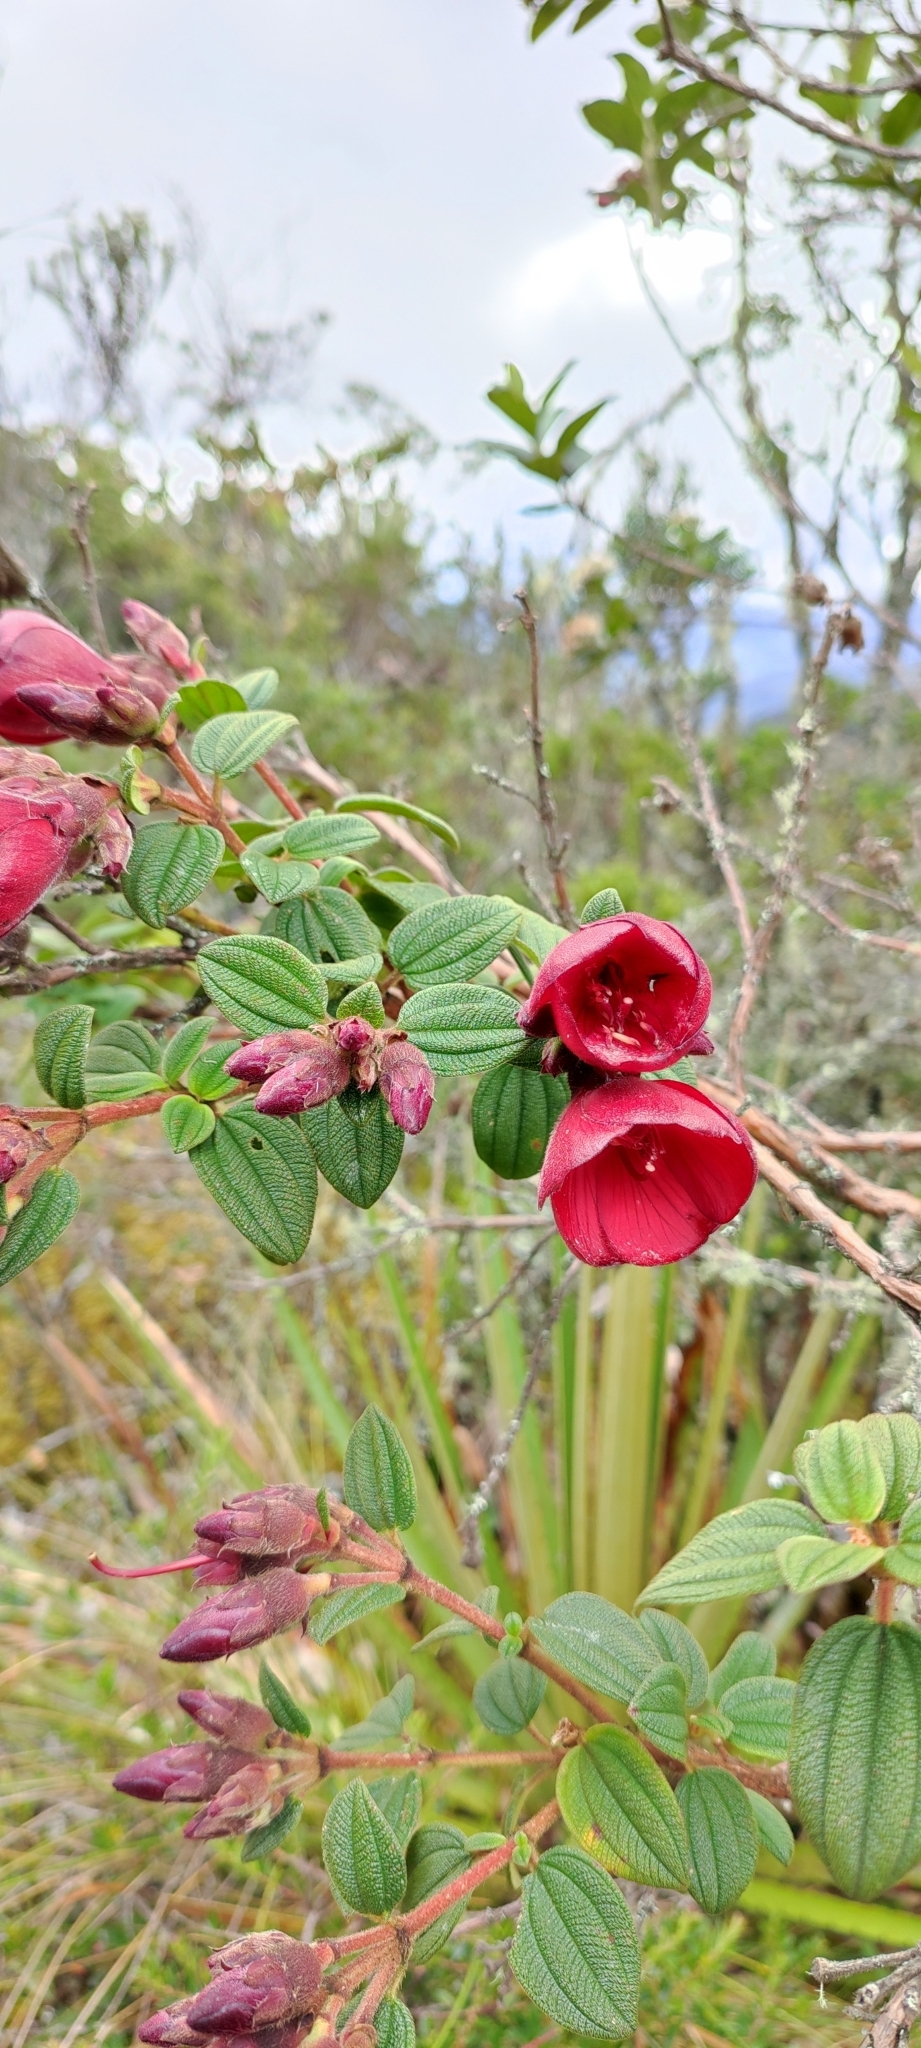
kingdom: Plantae
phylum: Tracheophyta
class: Magnoliopsida
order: Myrtales
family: Melastomataceae
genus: Chaetogastra
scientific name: Chaetogastra grossa
